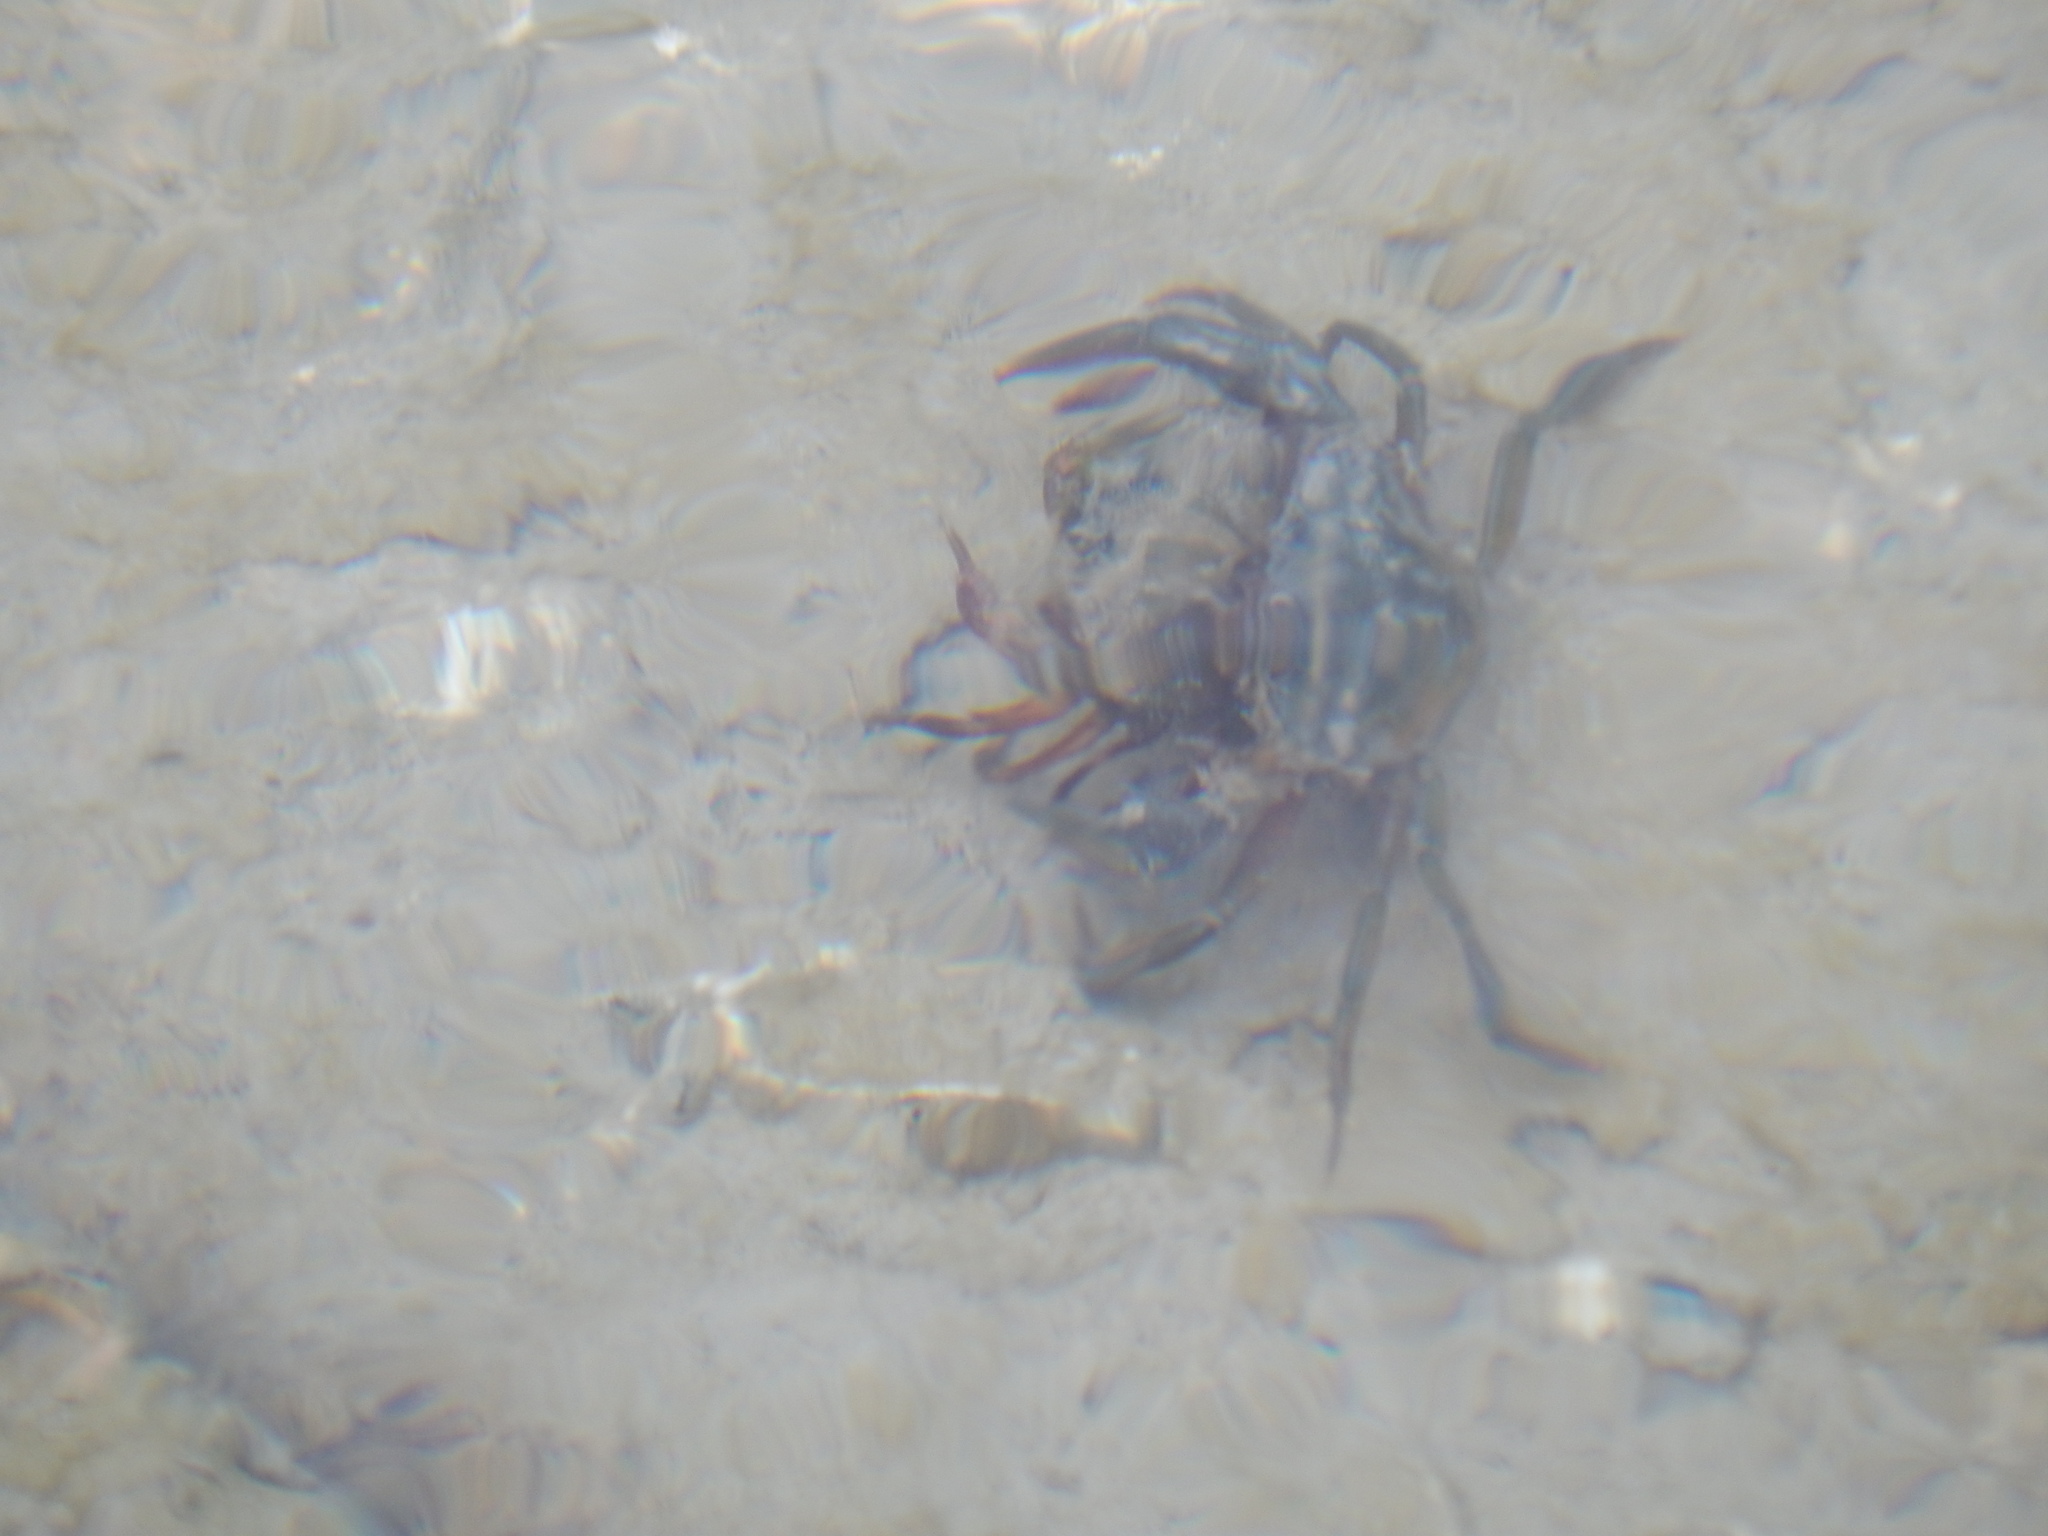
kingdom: Animalia
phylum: Arthropoda
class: Malacostraca
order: Decapoda
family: Carcinidae
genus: Carcinus
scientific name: Carcinus aestuarii
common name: Mediterranean green crab
